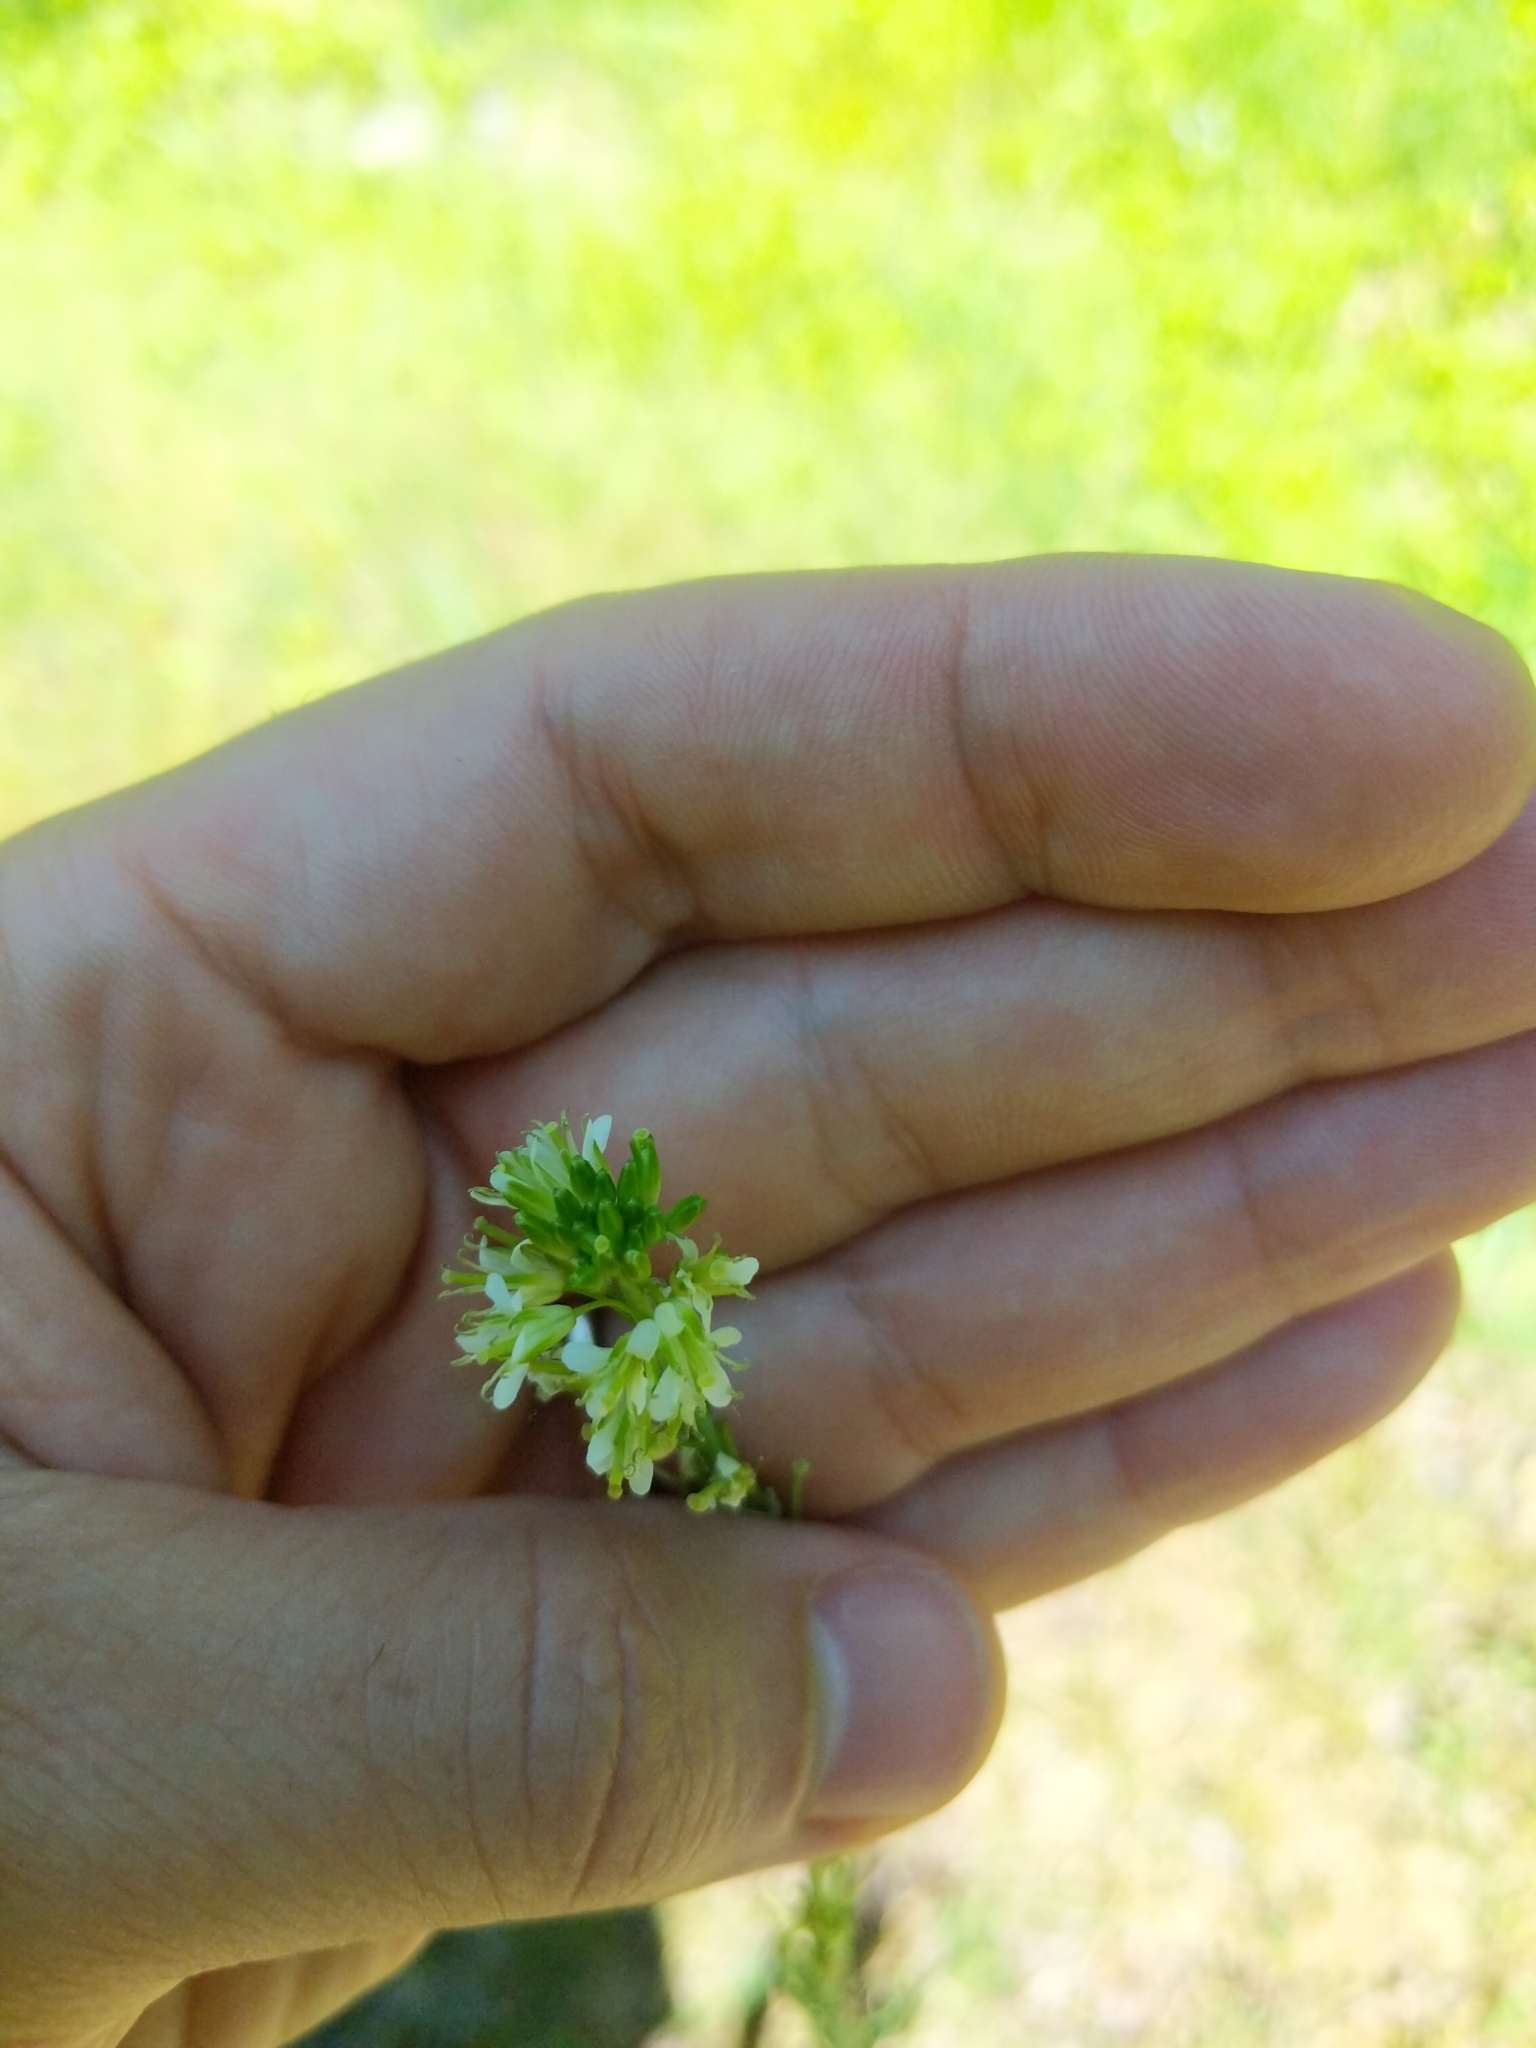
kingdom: Plantae
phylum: Tracheophyta
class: Magnoliopsida
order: Brassicales
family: Brassicaceae
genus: Turritis
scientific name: Turritis glabra
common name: Tower rockcress
